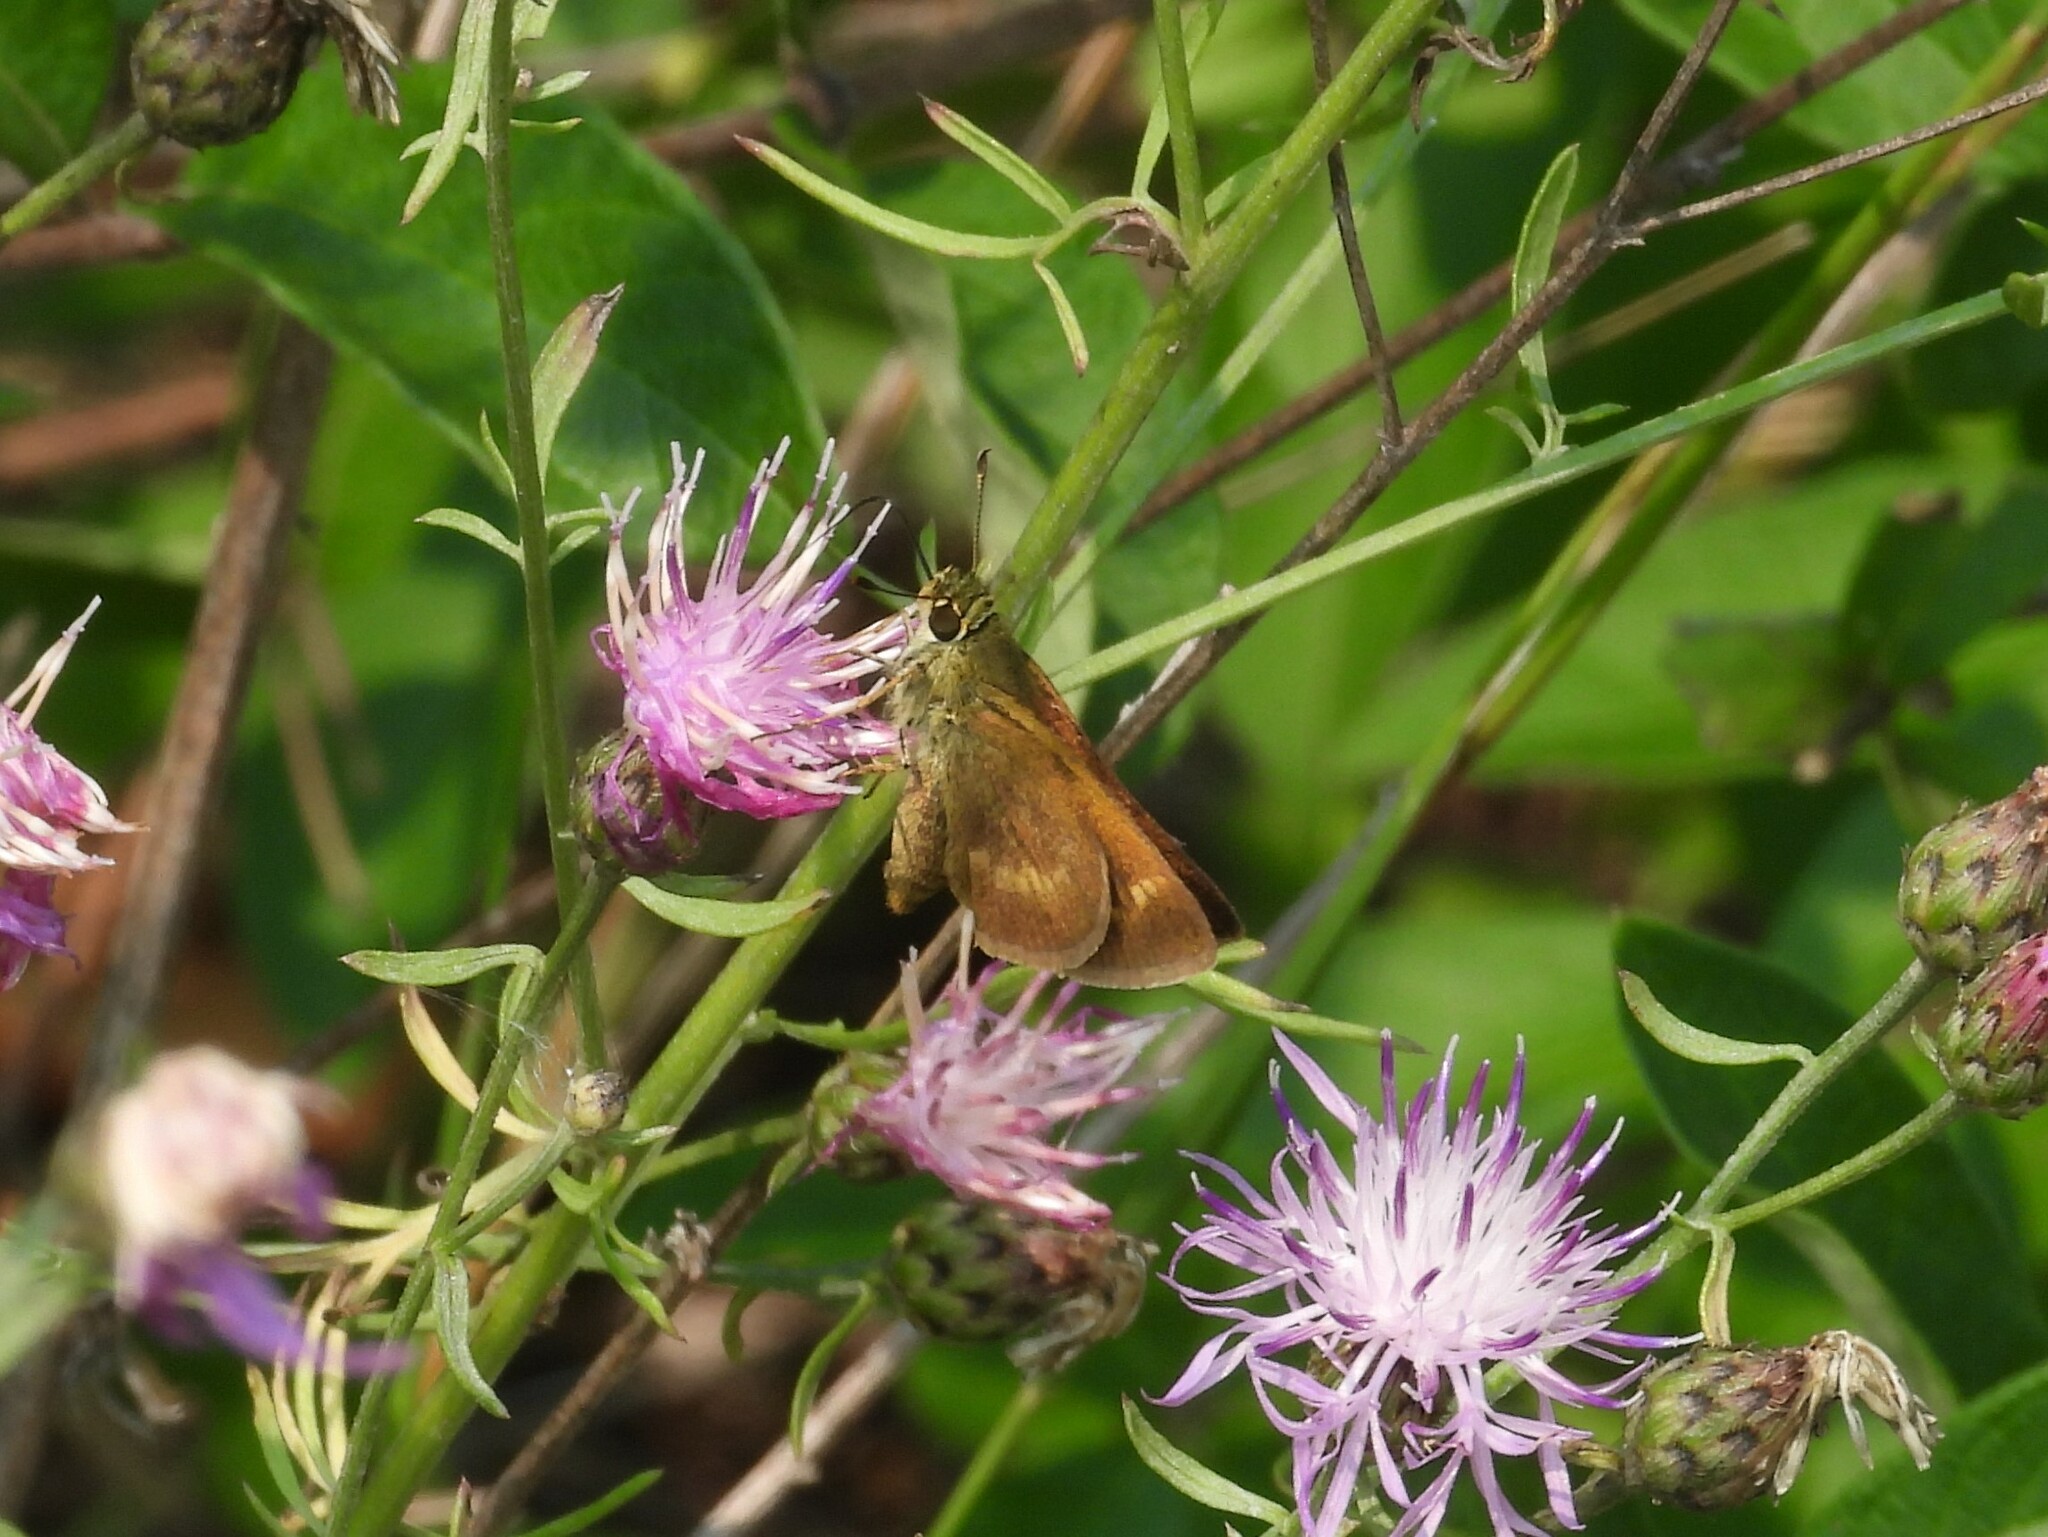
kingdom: Animalia
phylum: Arthropoda
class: Insecta
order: Lepidoptera
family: Hesperiidae
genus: Polites
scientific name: Polites egeremet
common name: Northern broken-dash
